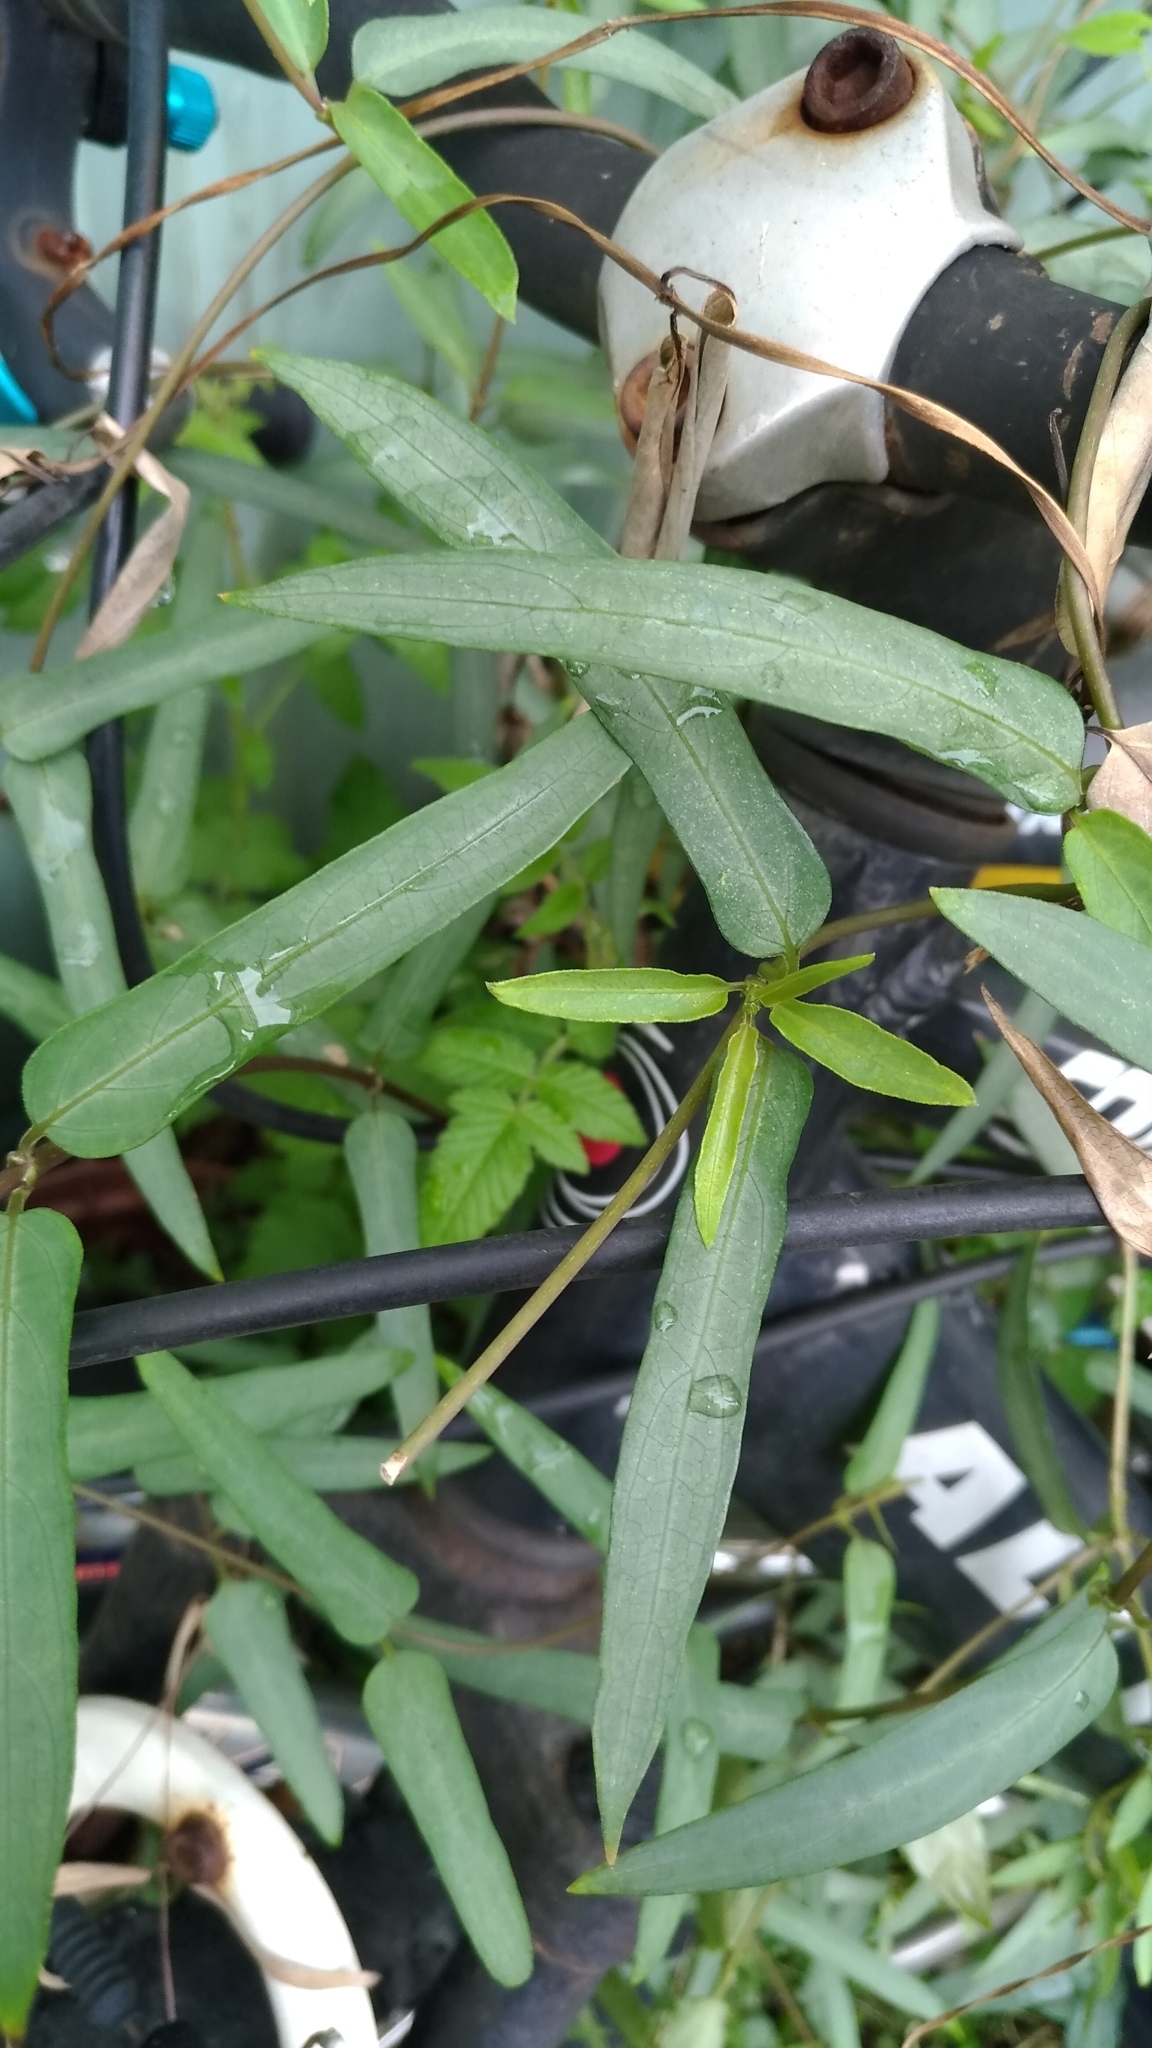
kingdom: Plantae
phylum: Tracheophyta
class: Magnoliopsida
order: Gentianales
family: Rubiaceae
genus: Paederia
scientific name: Paederia foetida
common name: Stinkvine
